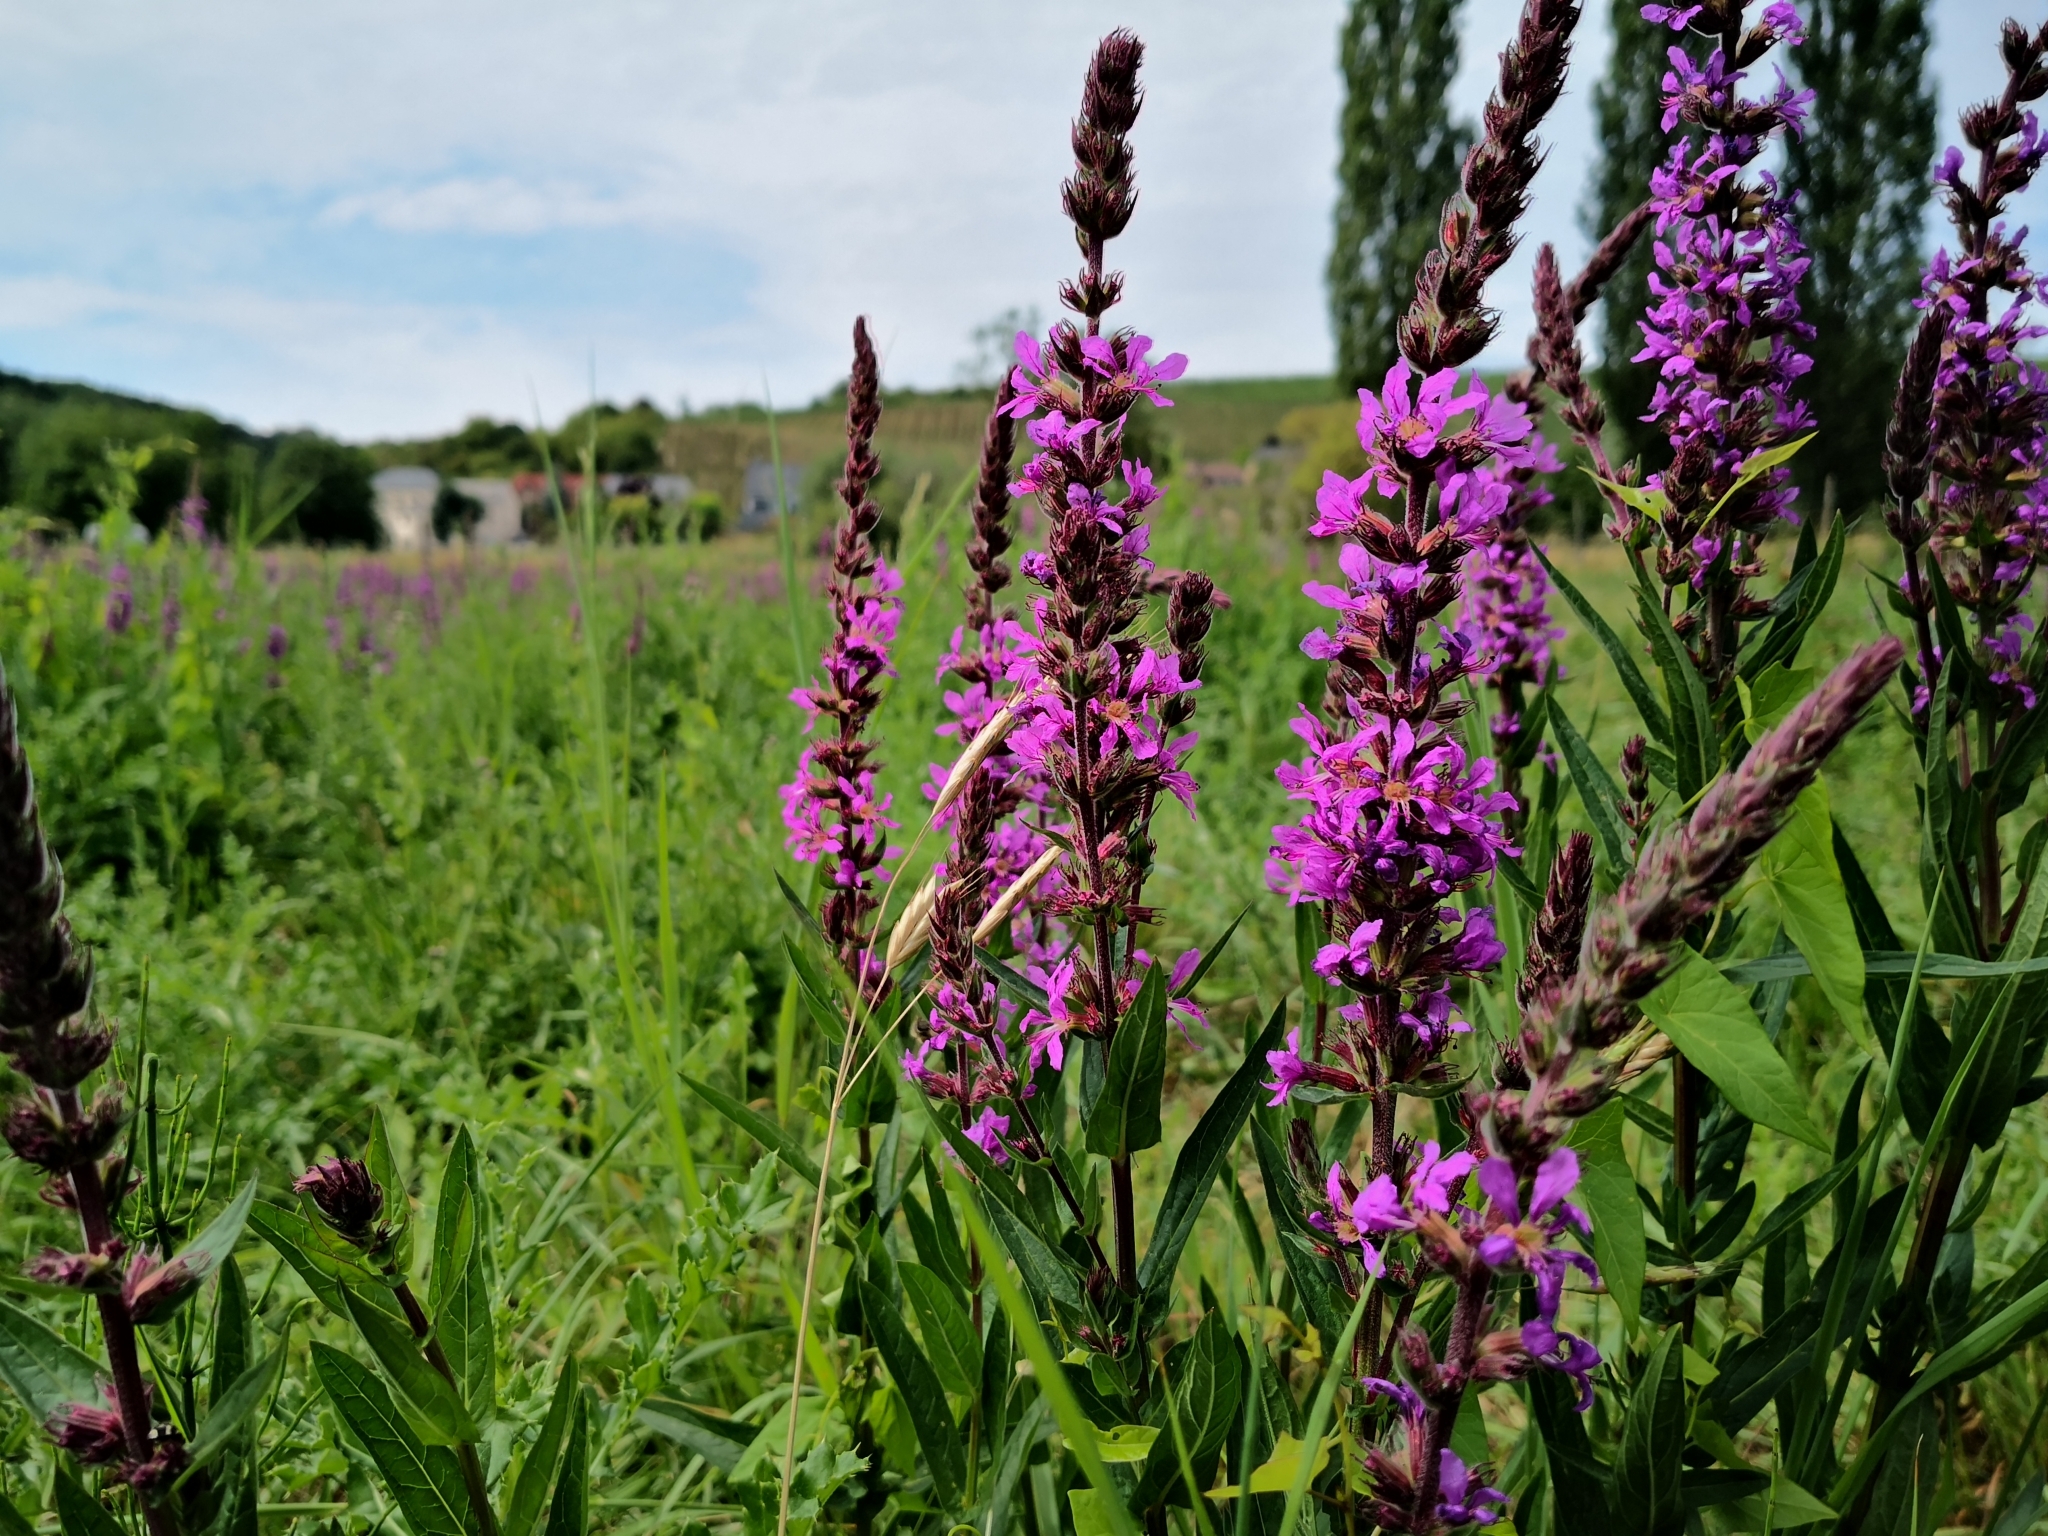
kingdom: Plantae
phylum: Tracheophyta
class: Magnoliopsida
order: Myrtales
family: Lythraceae
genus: Lythrum
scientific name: Lythrum salicaria
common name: Purple loosestrife
